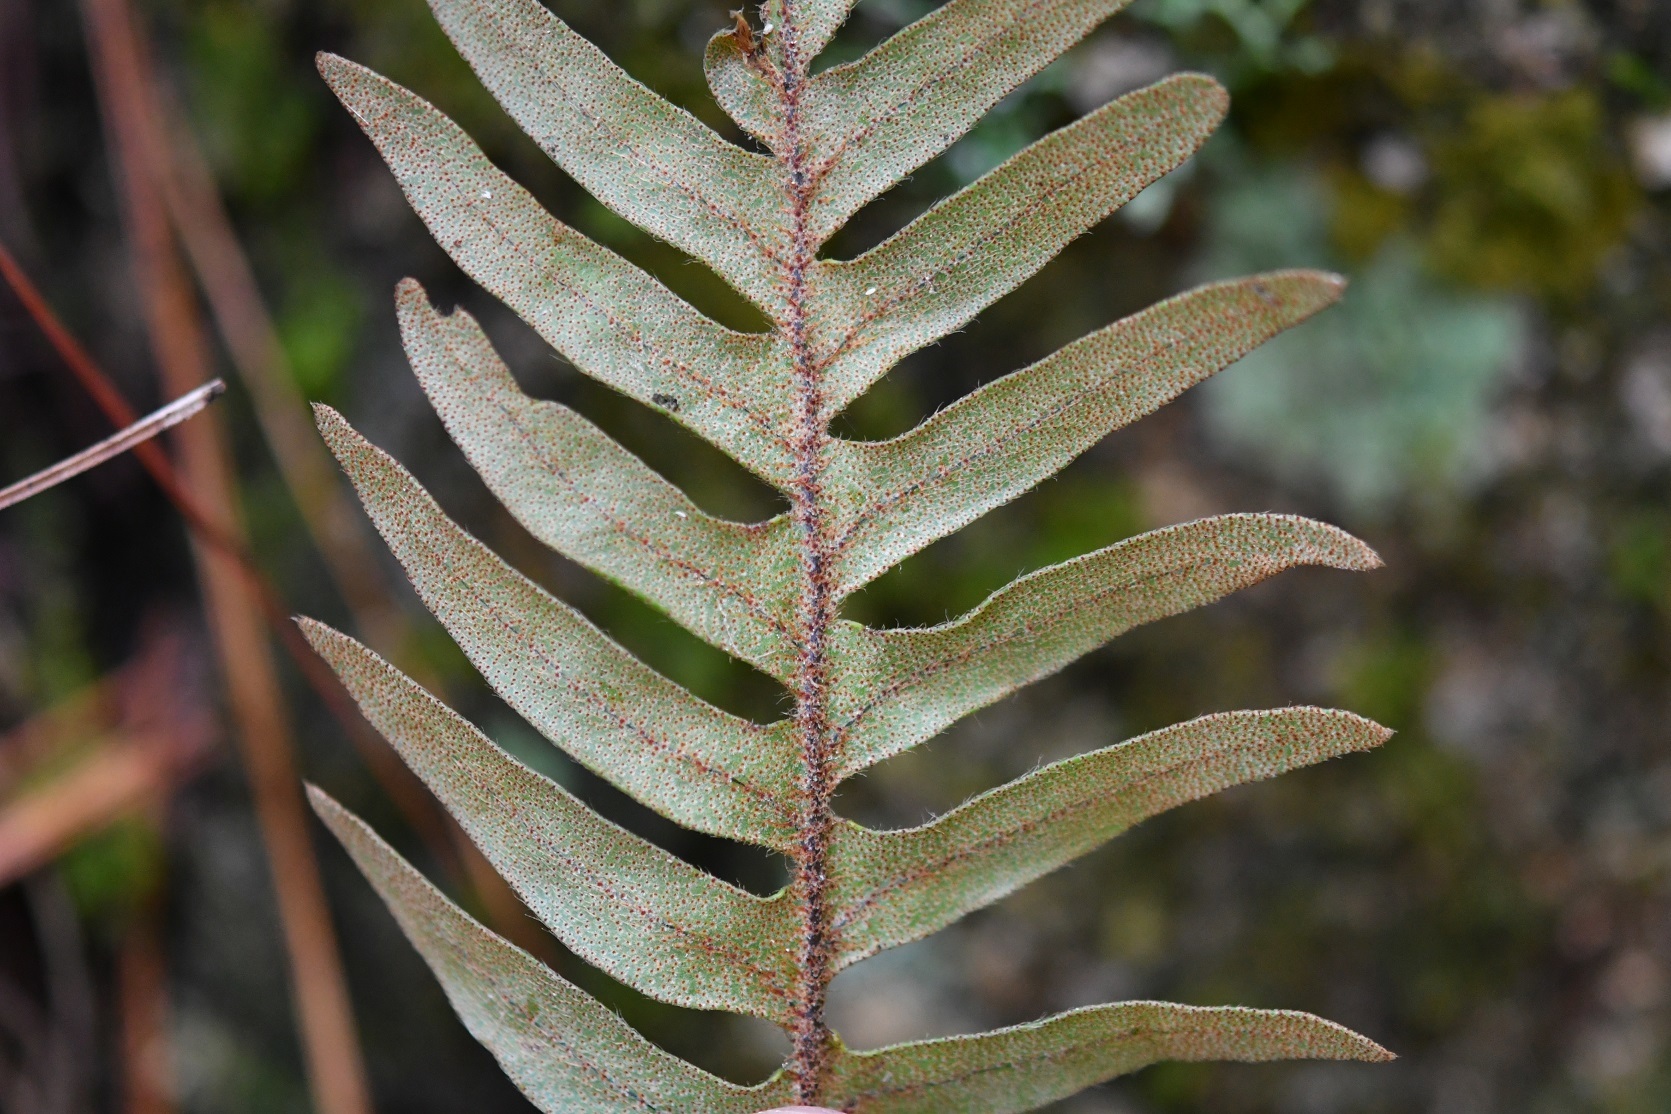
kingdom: Plantae
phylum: Tracheophyta
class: Polypodiopsida
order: Polypodiales
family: Polypodiaceae
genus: Pleopeltis
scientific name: Pleopeltis polypodioides
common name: Resurrection fern
